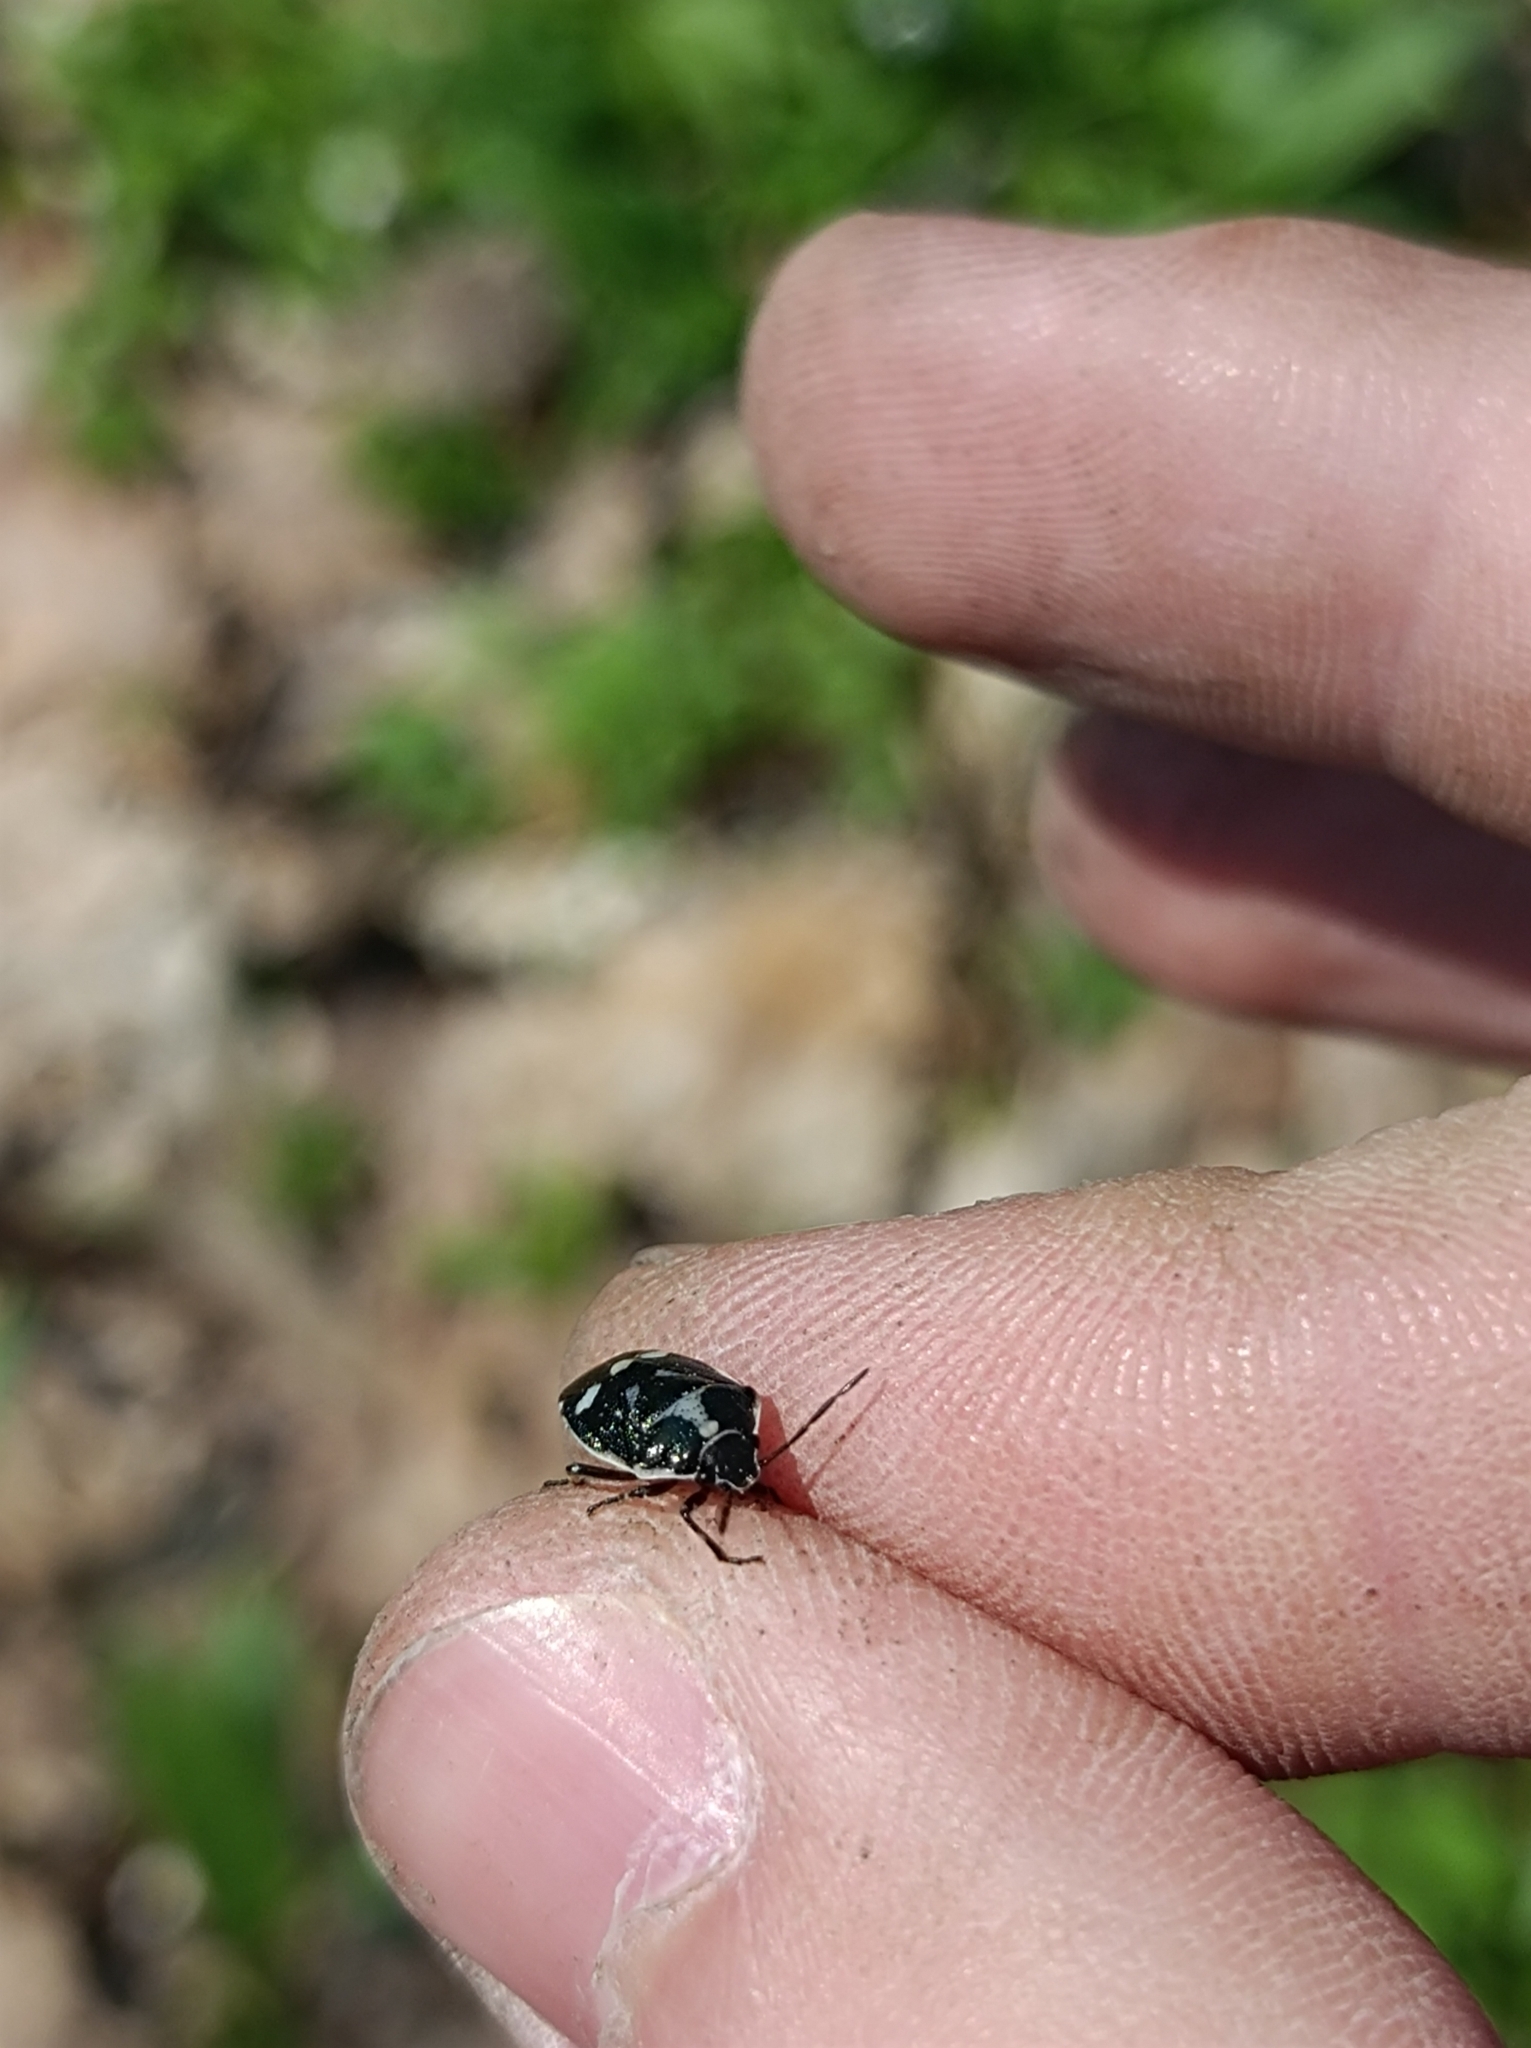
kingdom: Animalia
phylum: Arthropoda
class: Insecta
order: Hemiptera
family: Pentatomidae
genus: Eurydema
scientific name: Eurydema oleracea
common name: Cabbage bug
